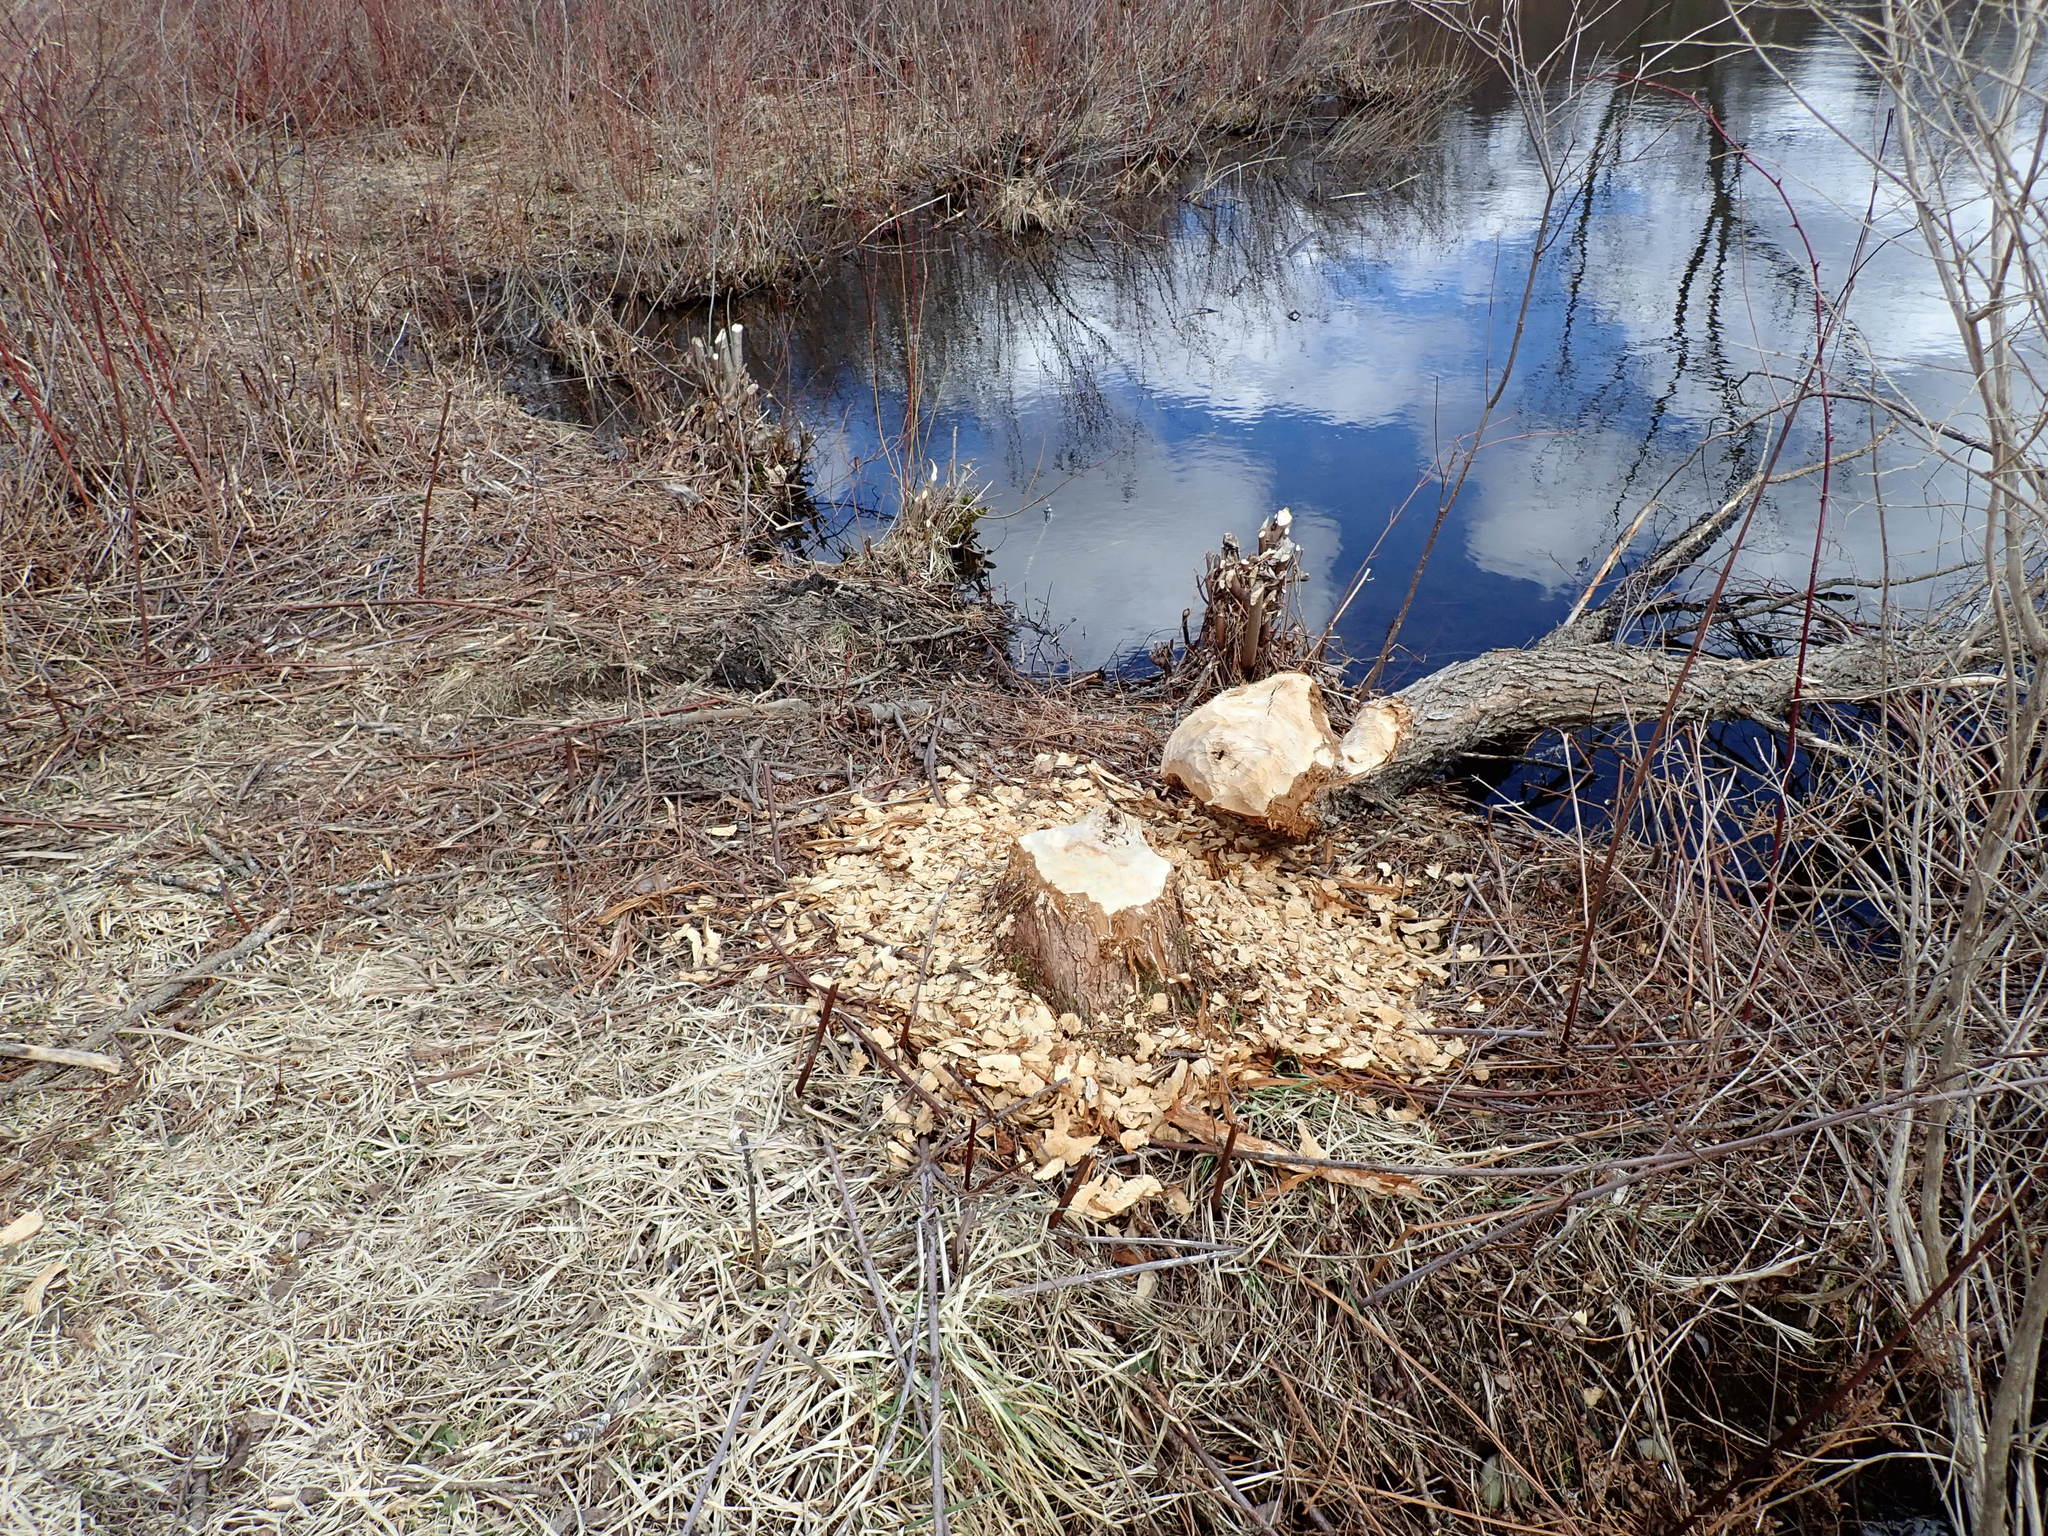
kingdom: Animalia
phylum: Chordata
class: Mammalia
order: Rodentia
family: Castoridae
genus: Castor
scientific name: Castor canadensis
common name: American beaver
